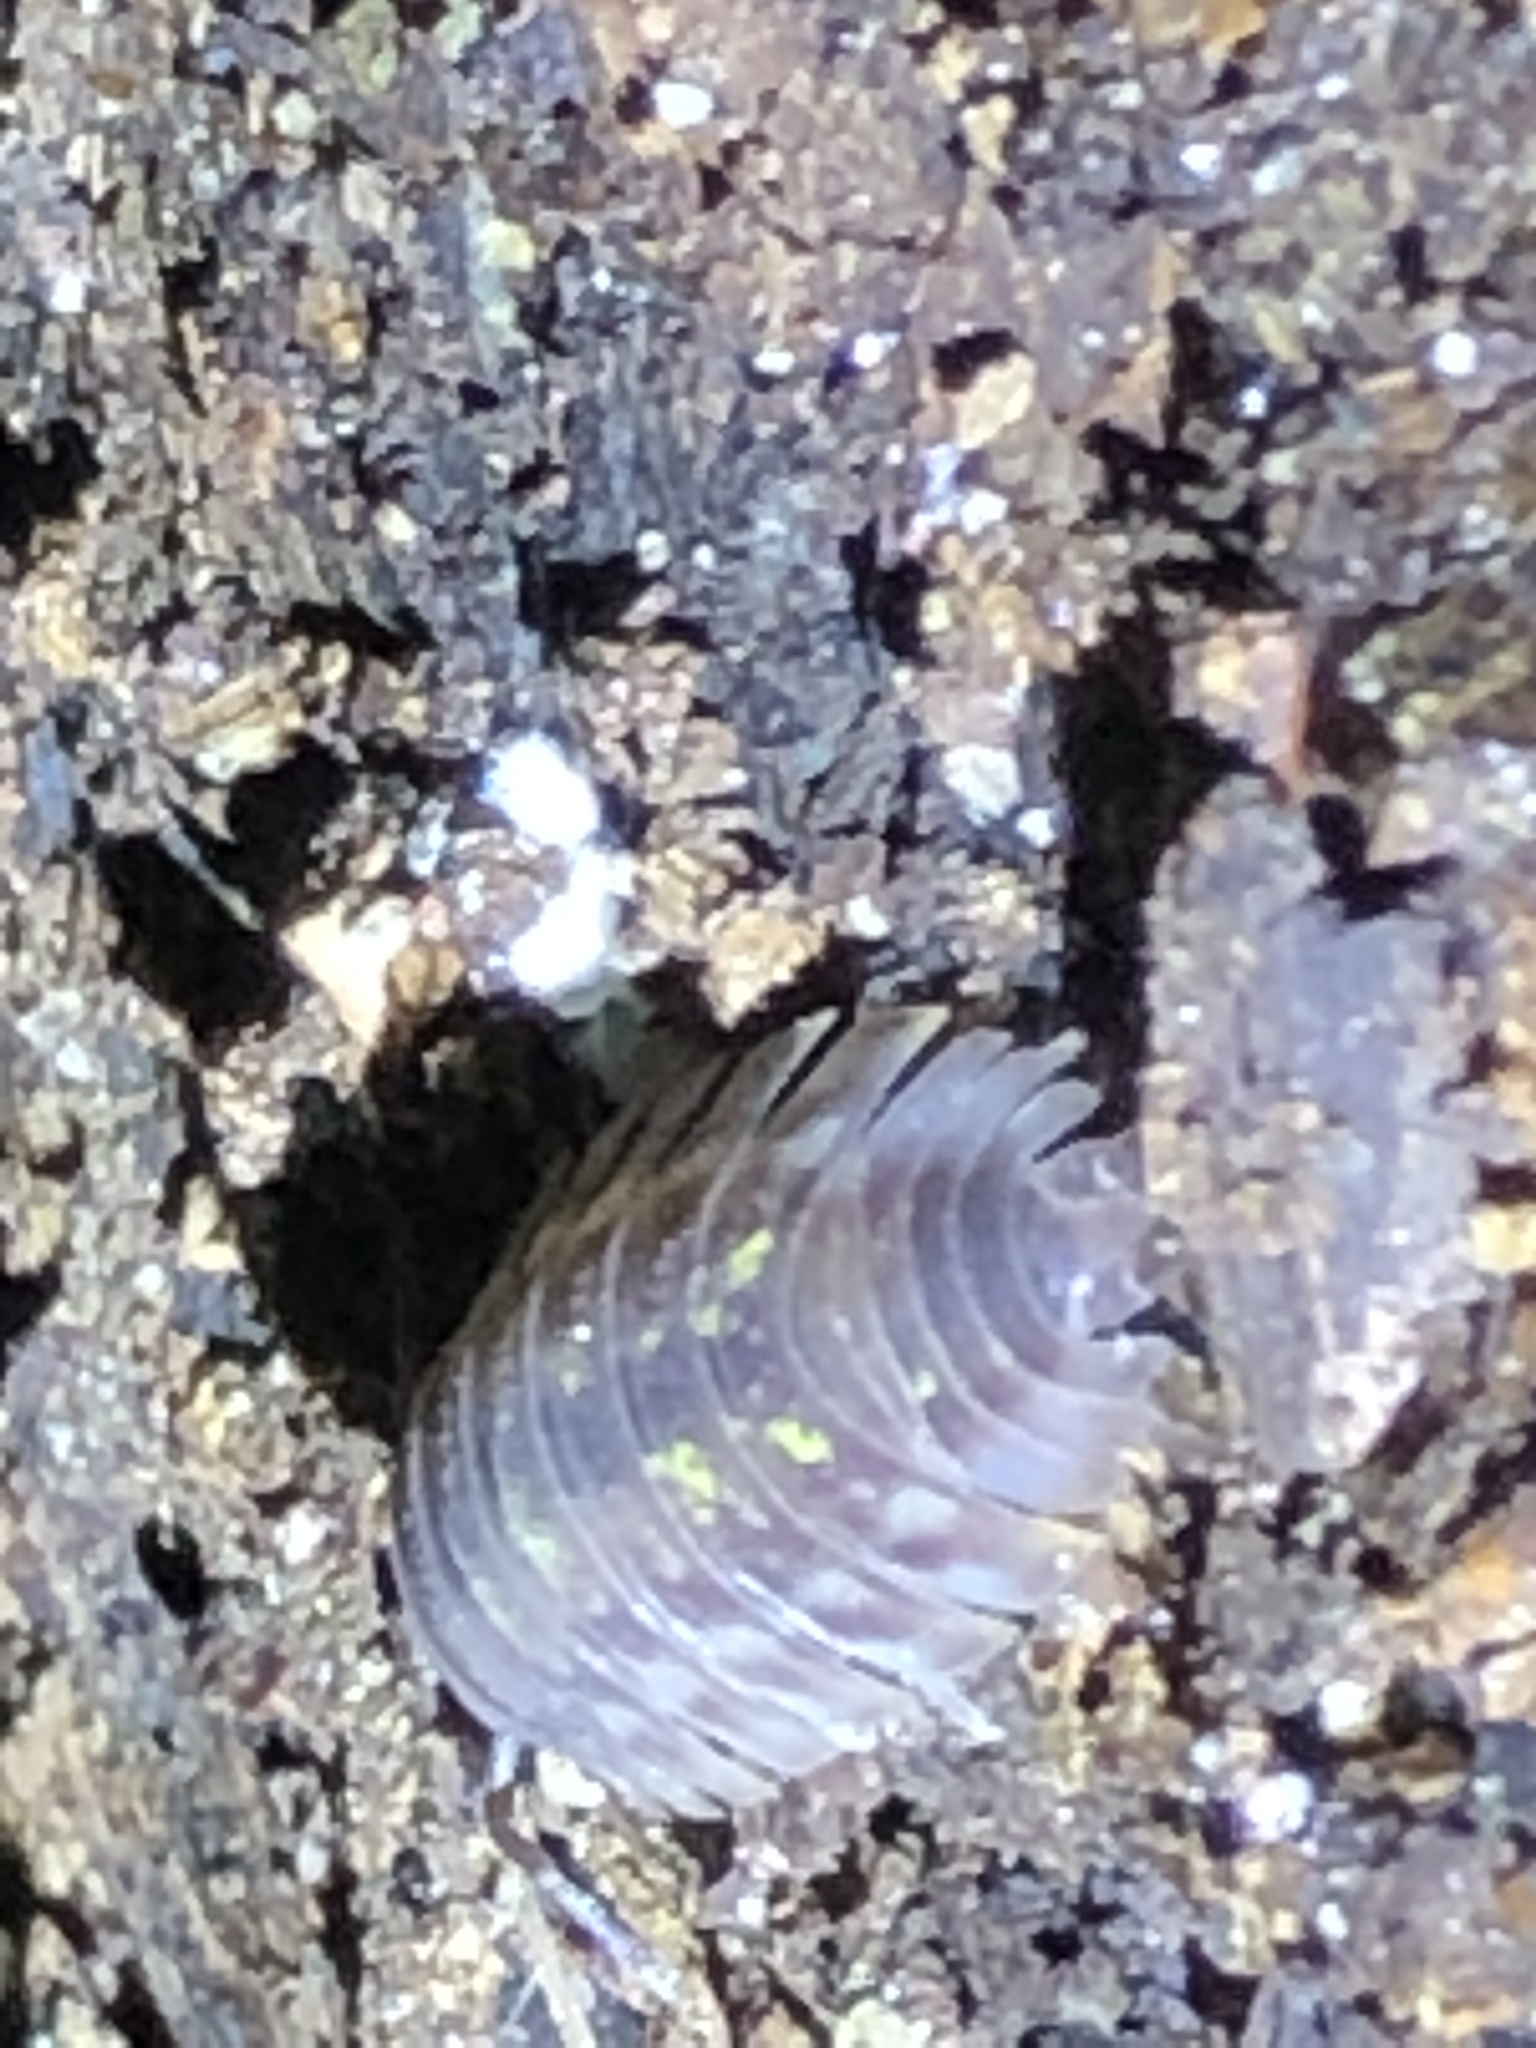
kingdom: Animalia
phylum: Arthropoda
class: Malacostraca
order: Isopoda
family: Oniscidae
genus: Oniscus
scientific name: Oniscus asellus
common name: Common shiny woodlouse
